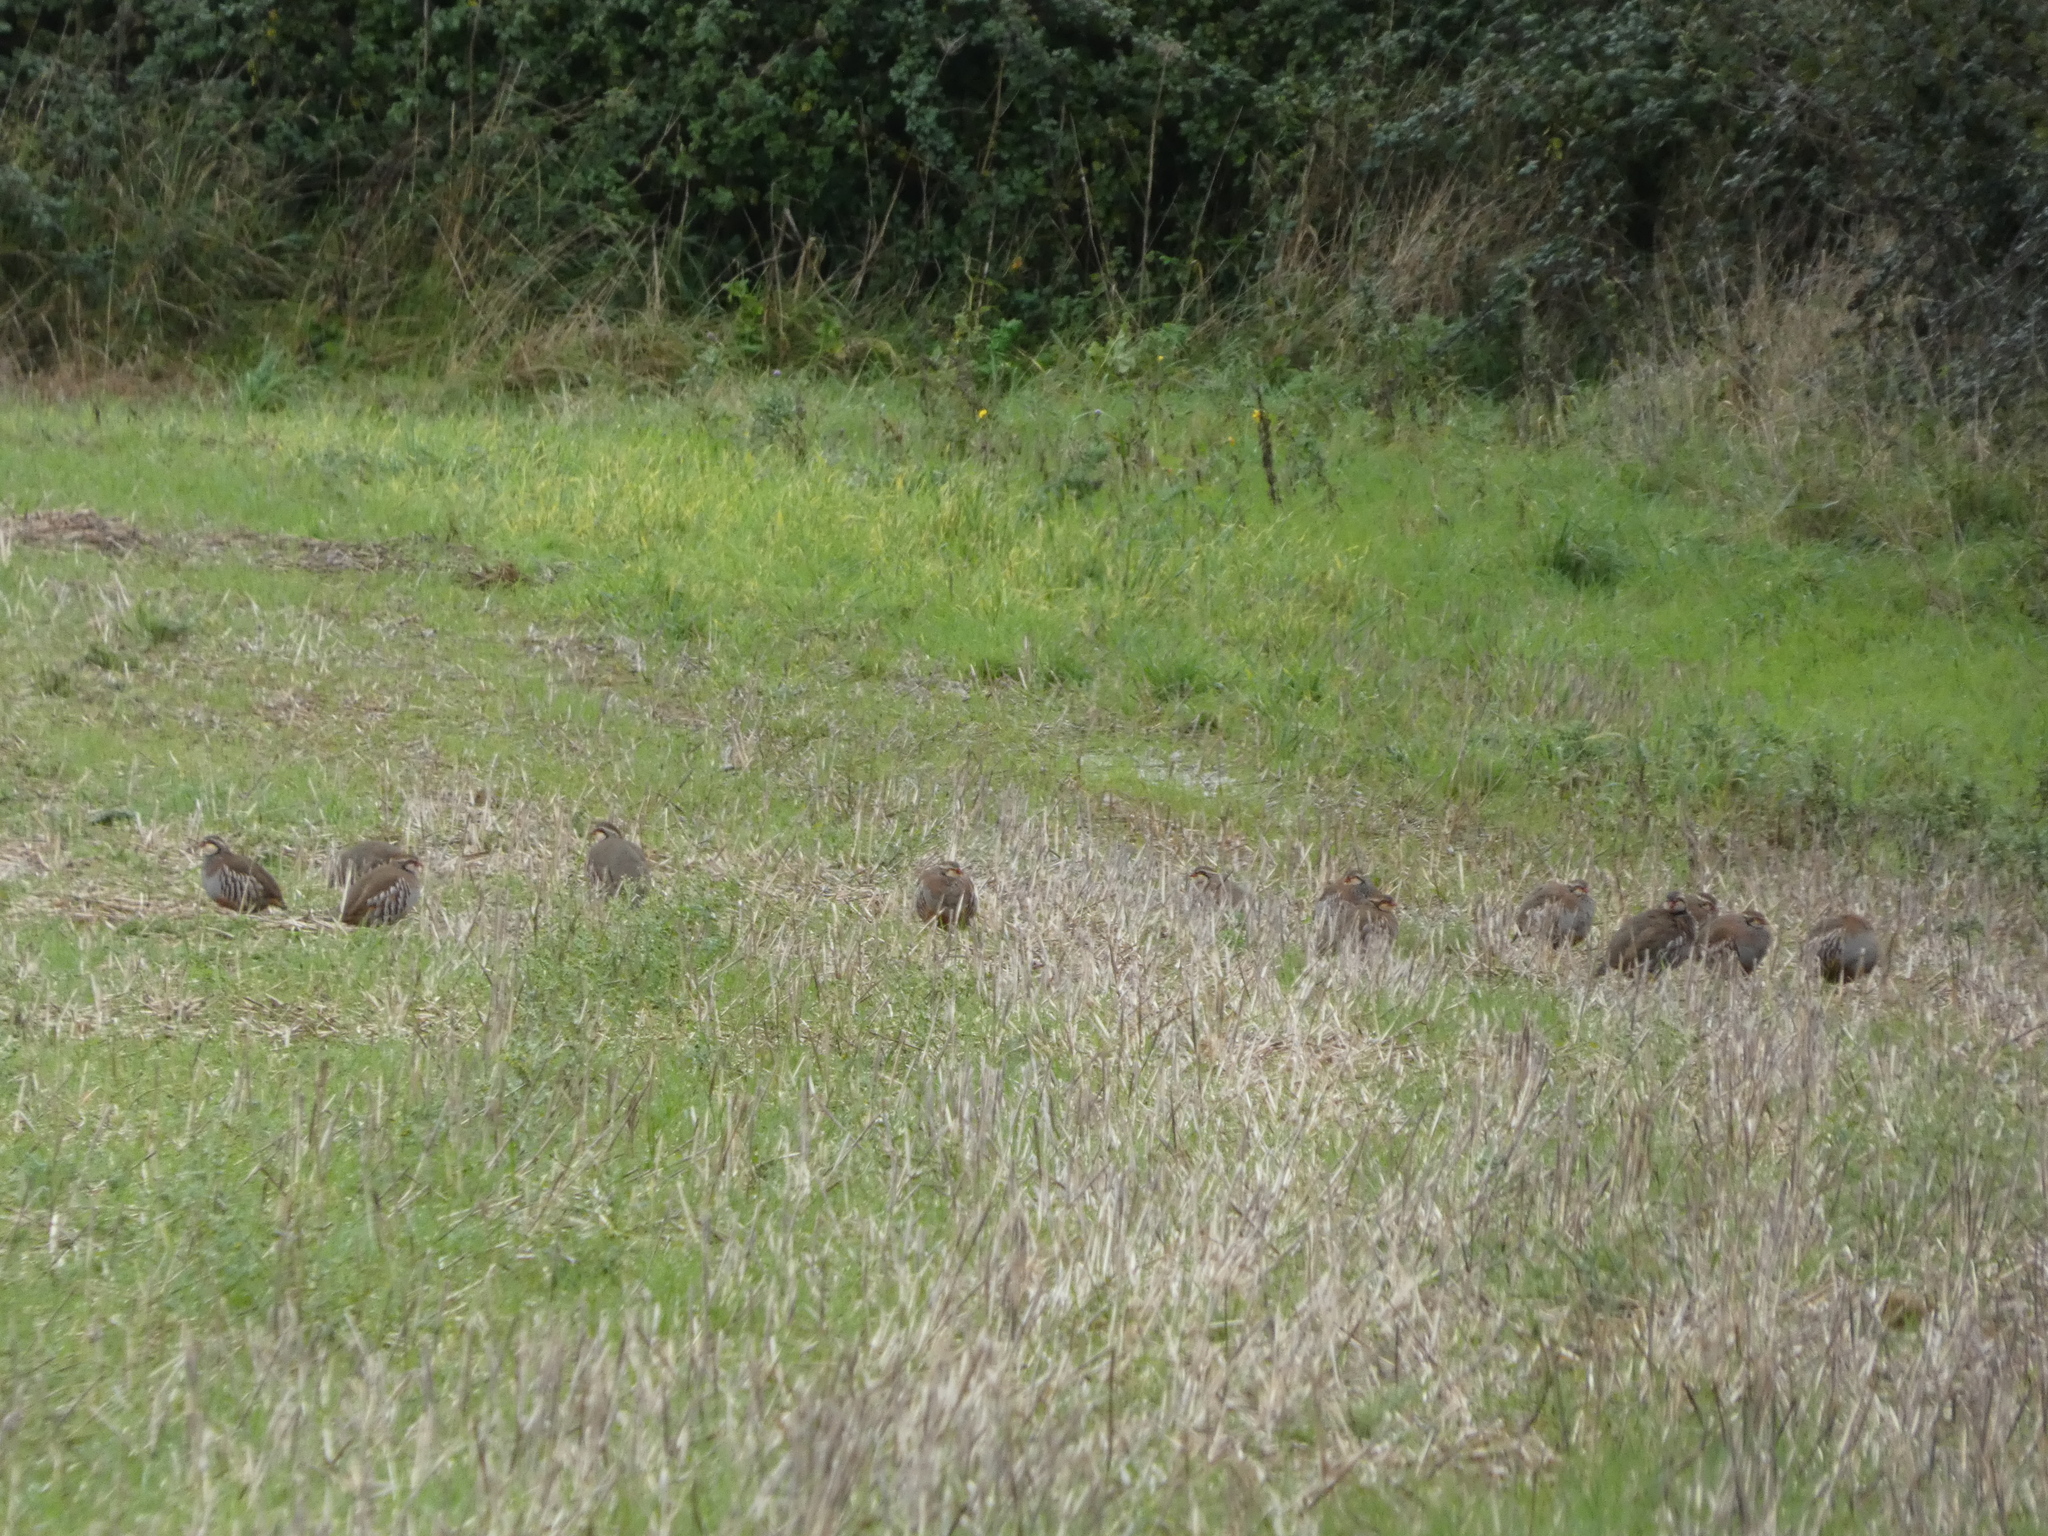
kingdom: Animalia
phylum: Chordata
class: Aves
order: Galliformes
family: Phasianidae
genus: Alectoris
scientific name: Alectoris rufa
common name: Red-legged partridge
